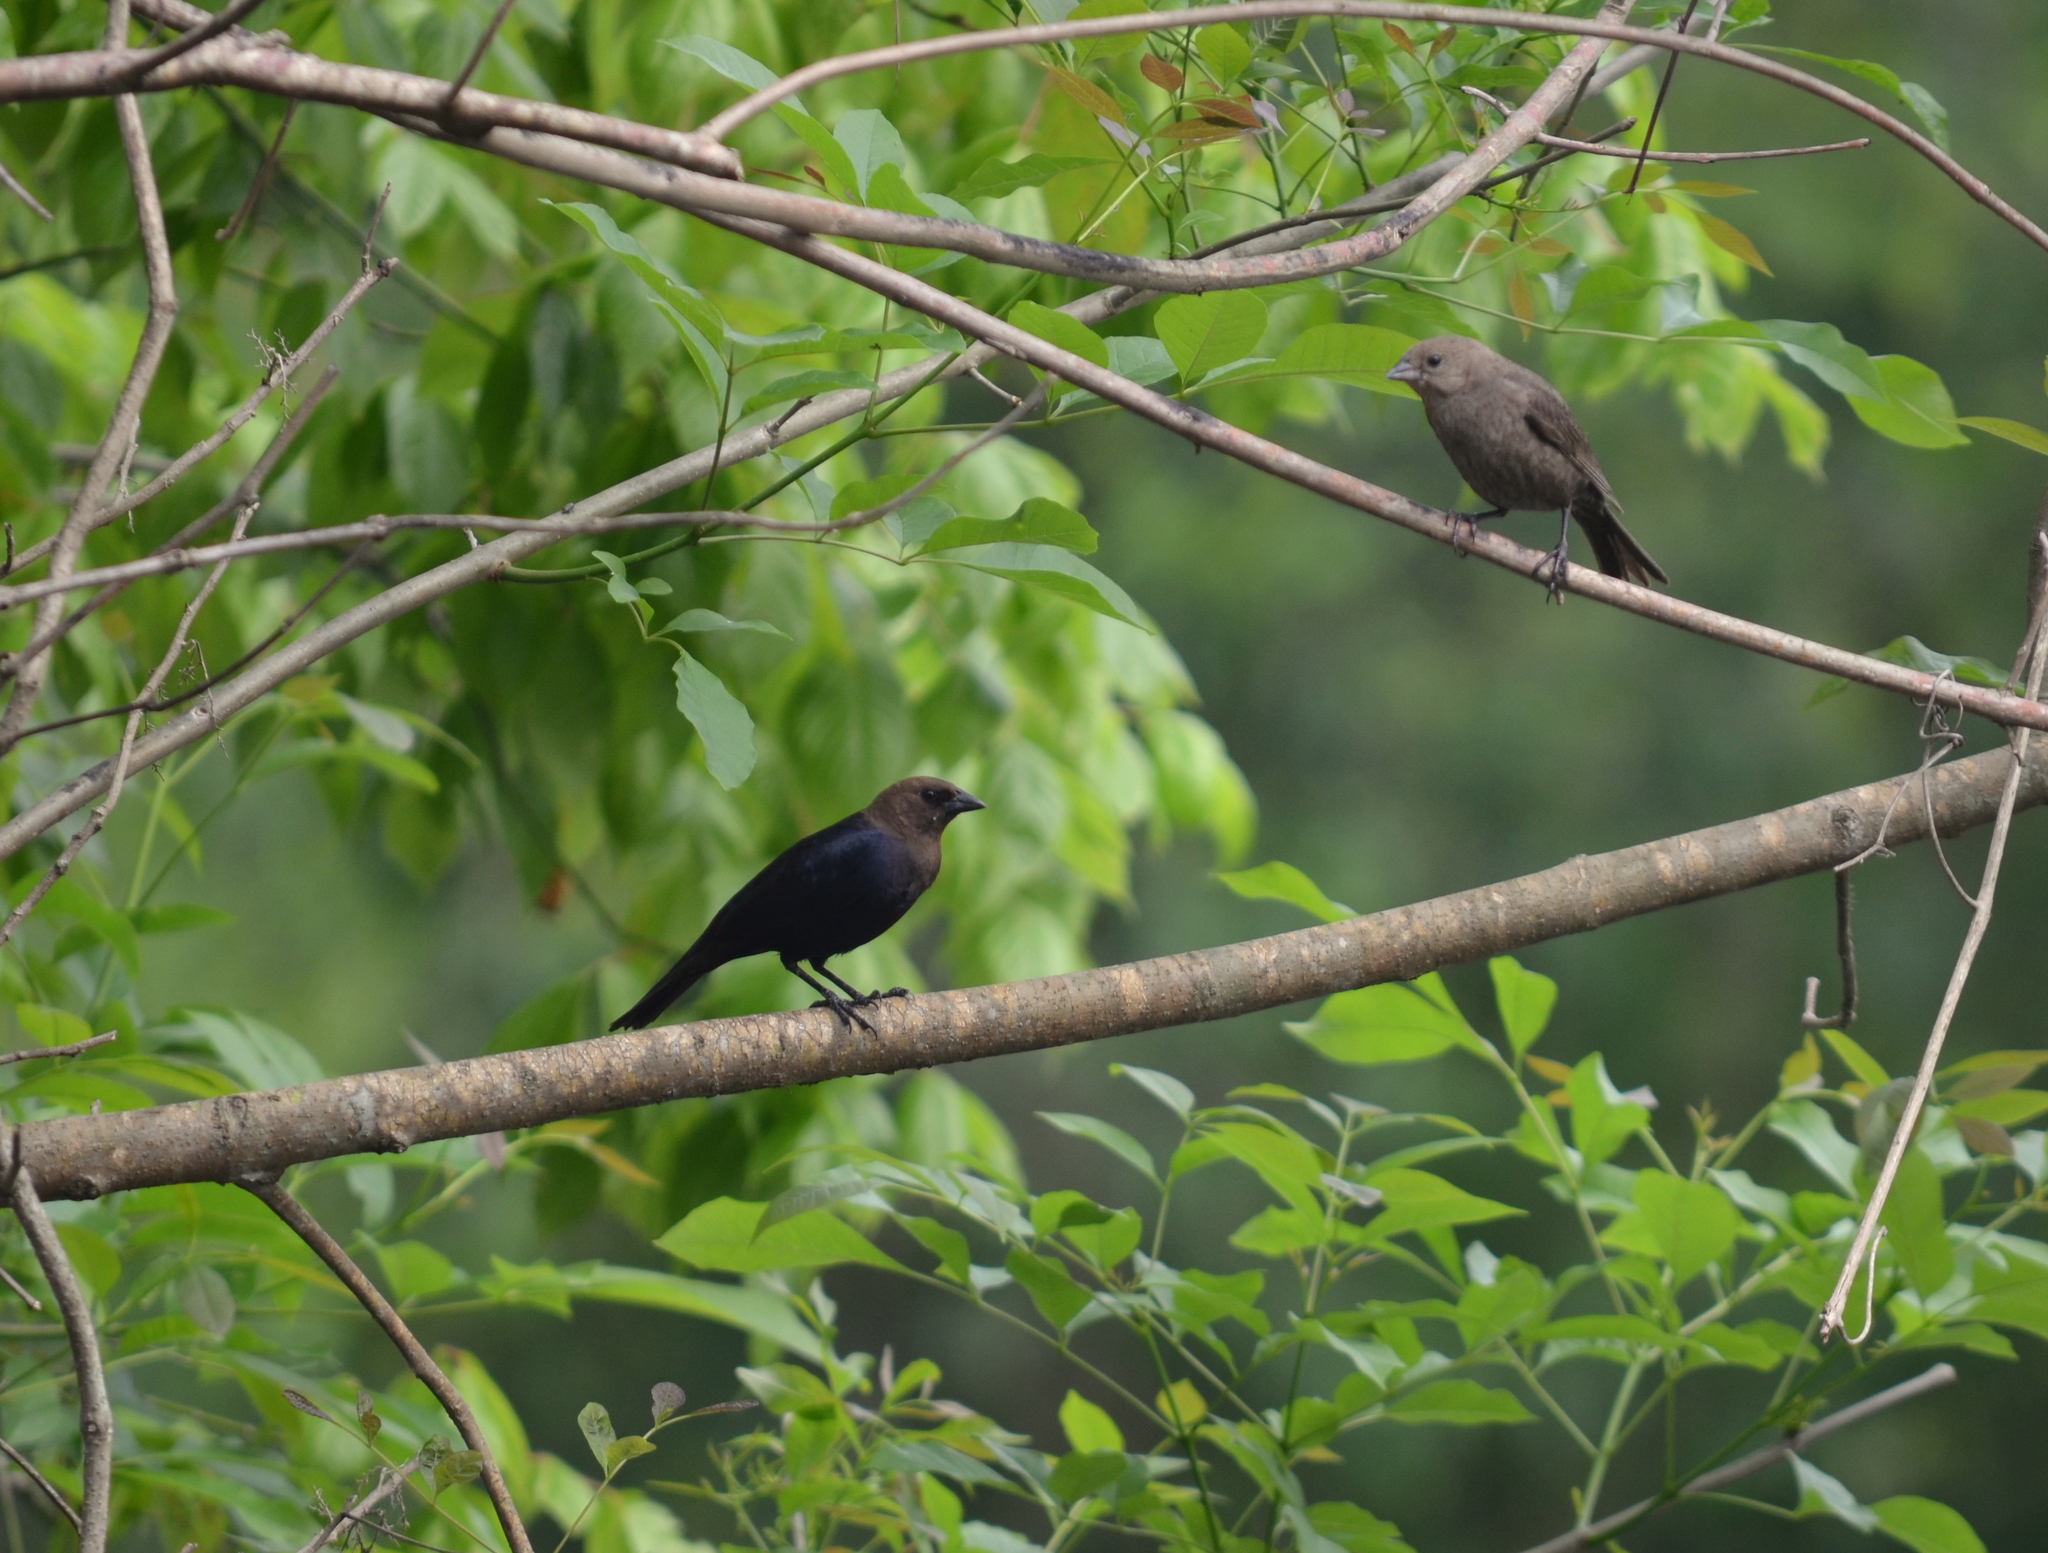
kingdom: Animalia
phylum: Chordata
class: Aves
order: Passeriformes
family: Icteridae
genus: Molothrus
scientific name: Molothrus ater
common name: Brown-headed cowbird
